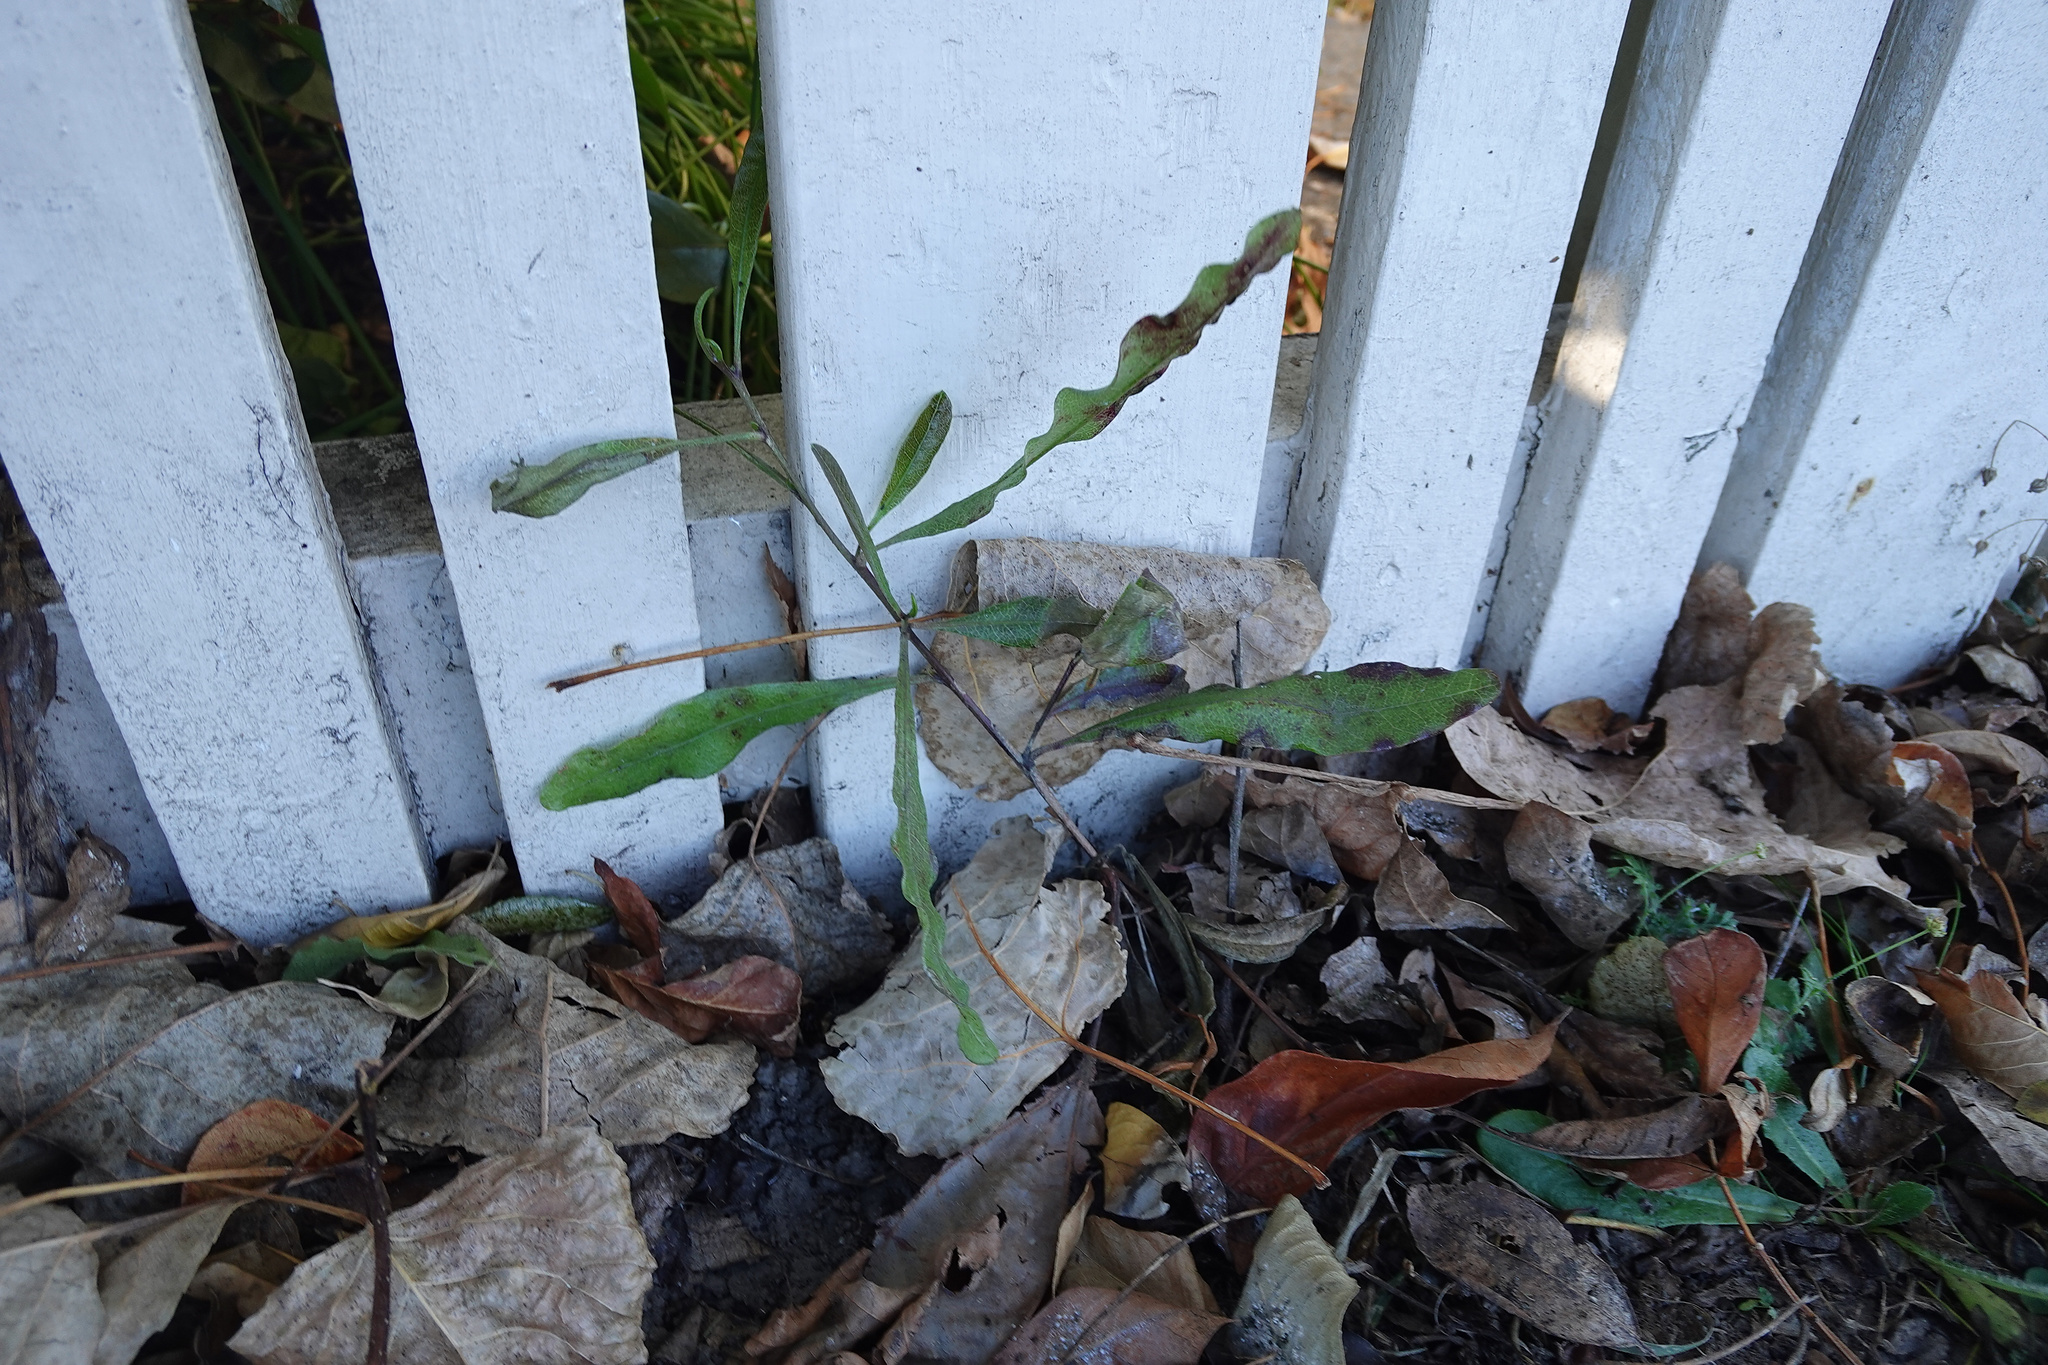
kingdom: Plantae
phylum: Tracheophyta
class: Magnoliopsida
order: Sapindales
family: Sapindaceae
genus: Dodonaea
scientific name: Dodonaea viscosa
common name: Hopbush
